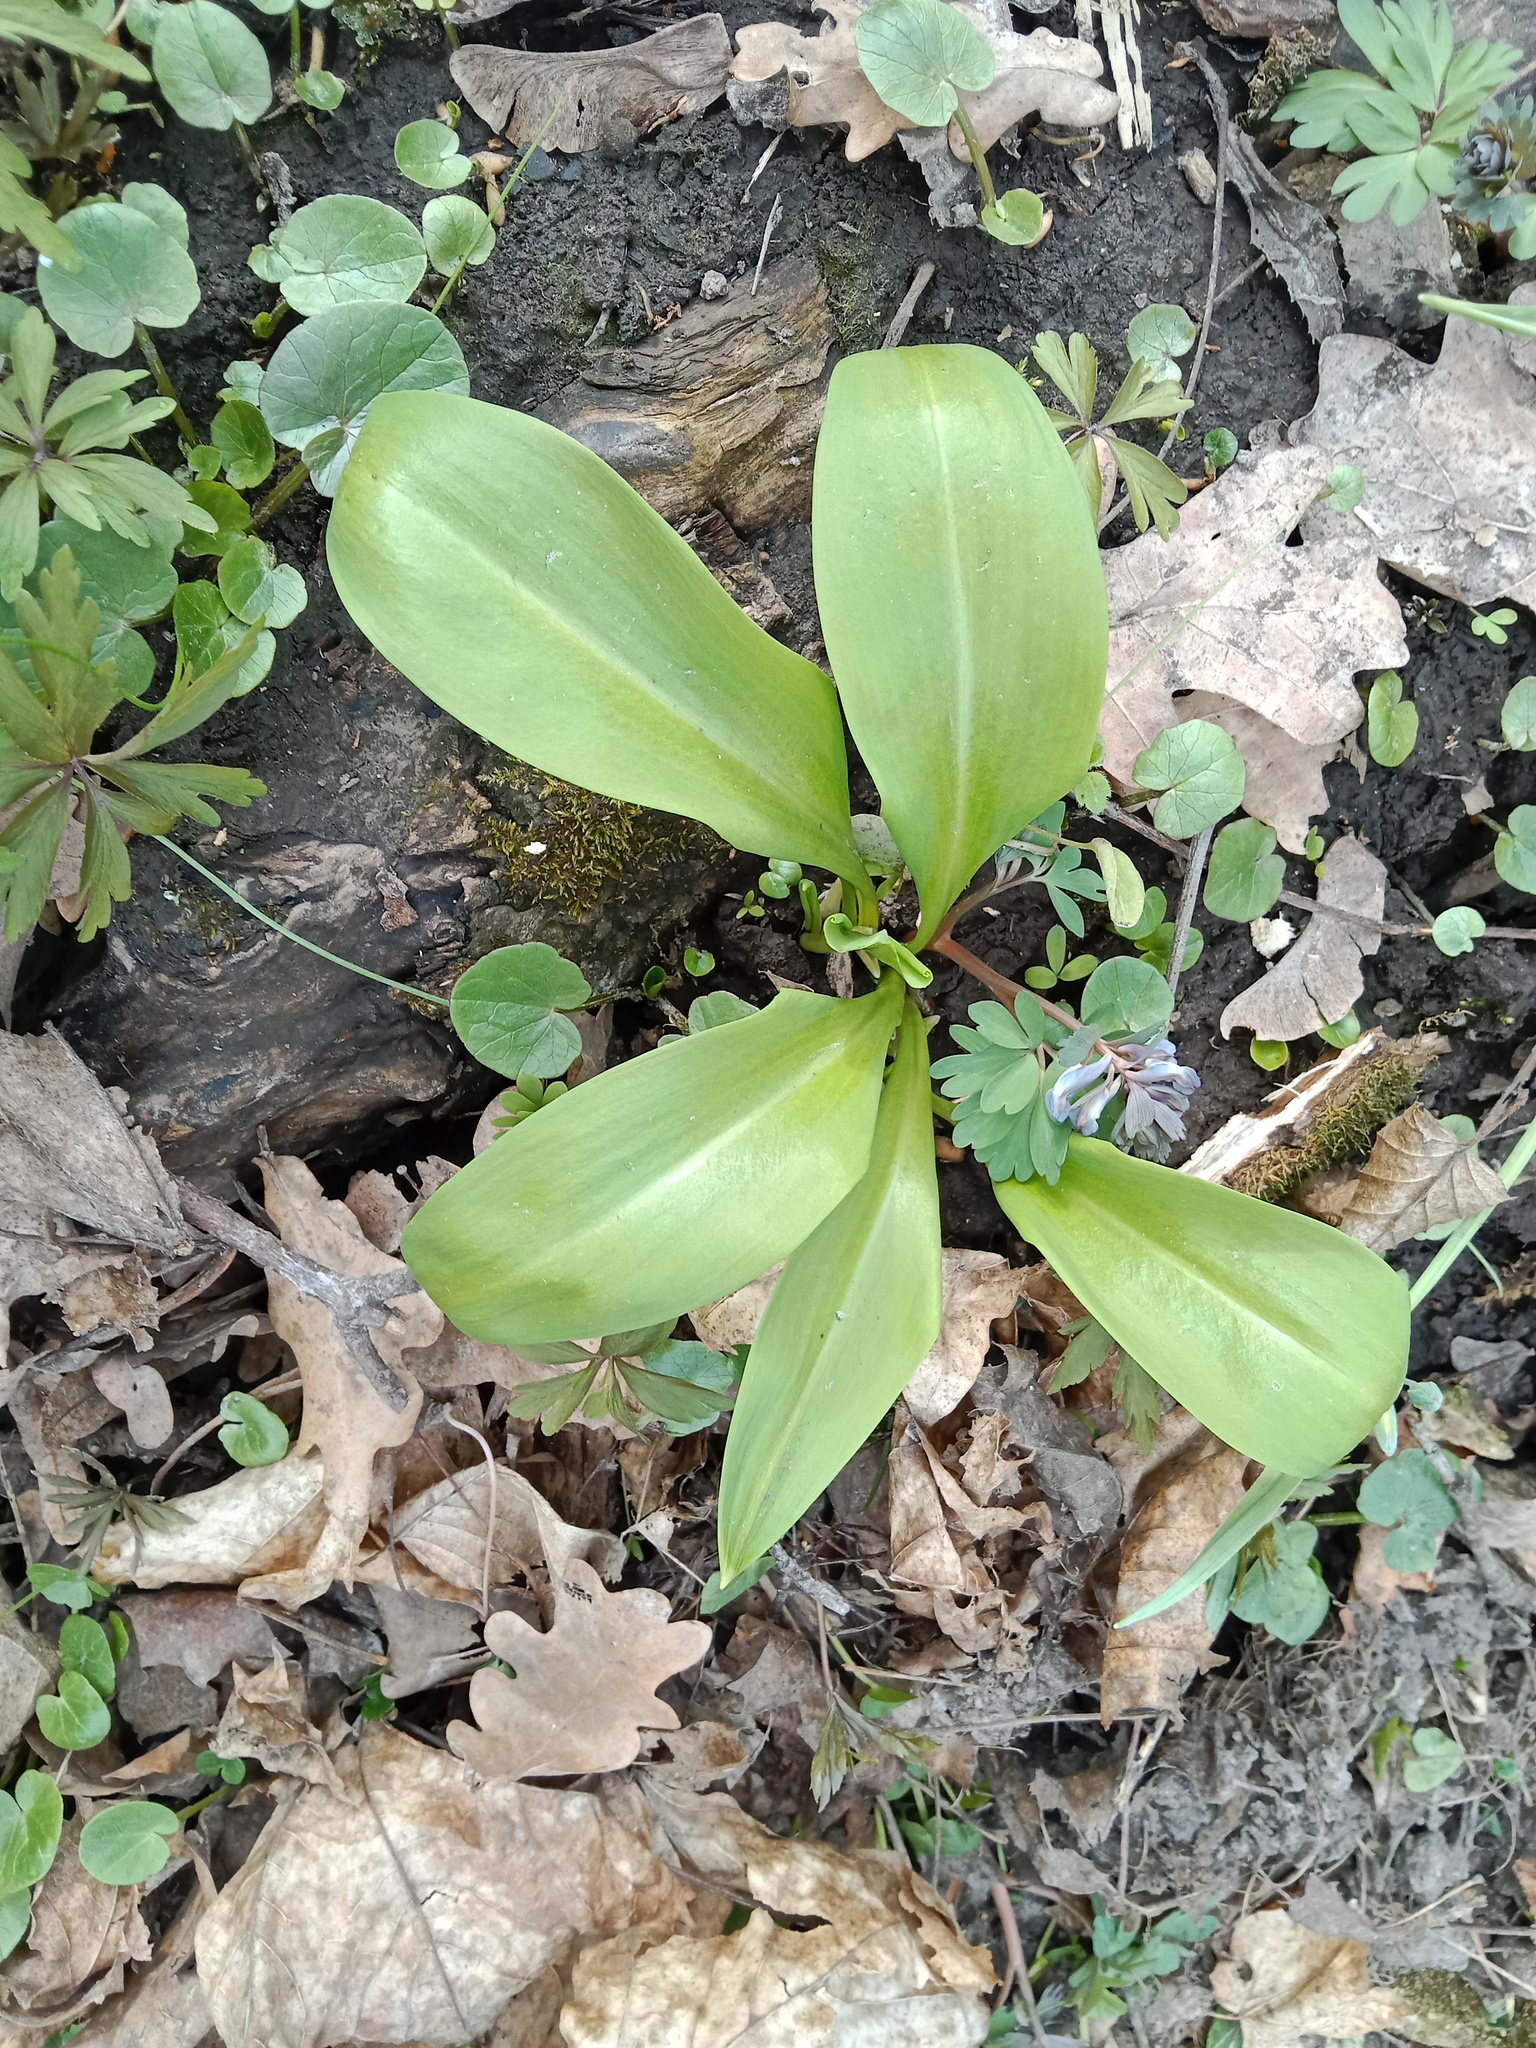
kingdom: Plantae
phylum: Tracheophyta
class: Liliopsida
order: Asparagales
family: Amaryllidaceae
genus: Allium
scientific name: Allium ursinum
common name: Ramsons
